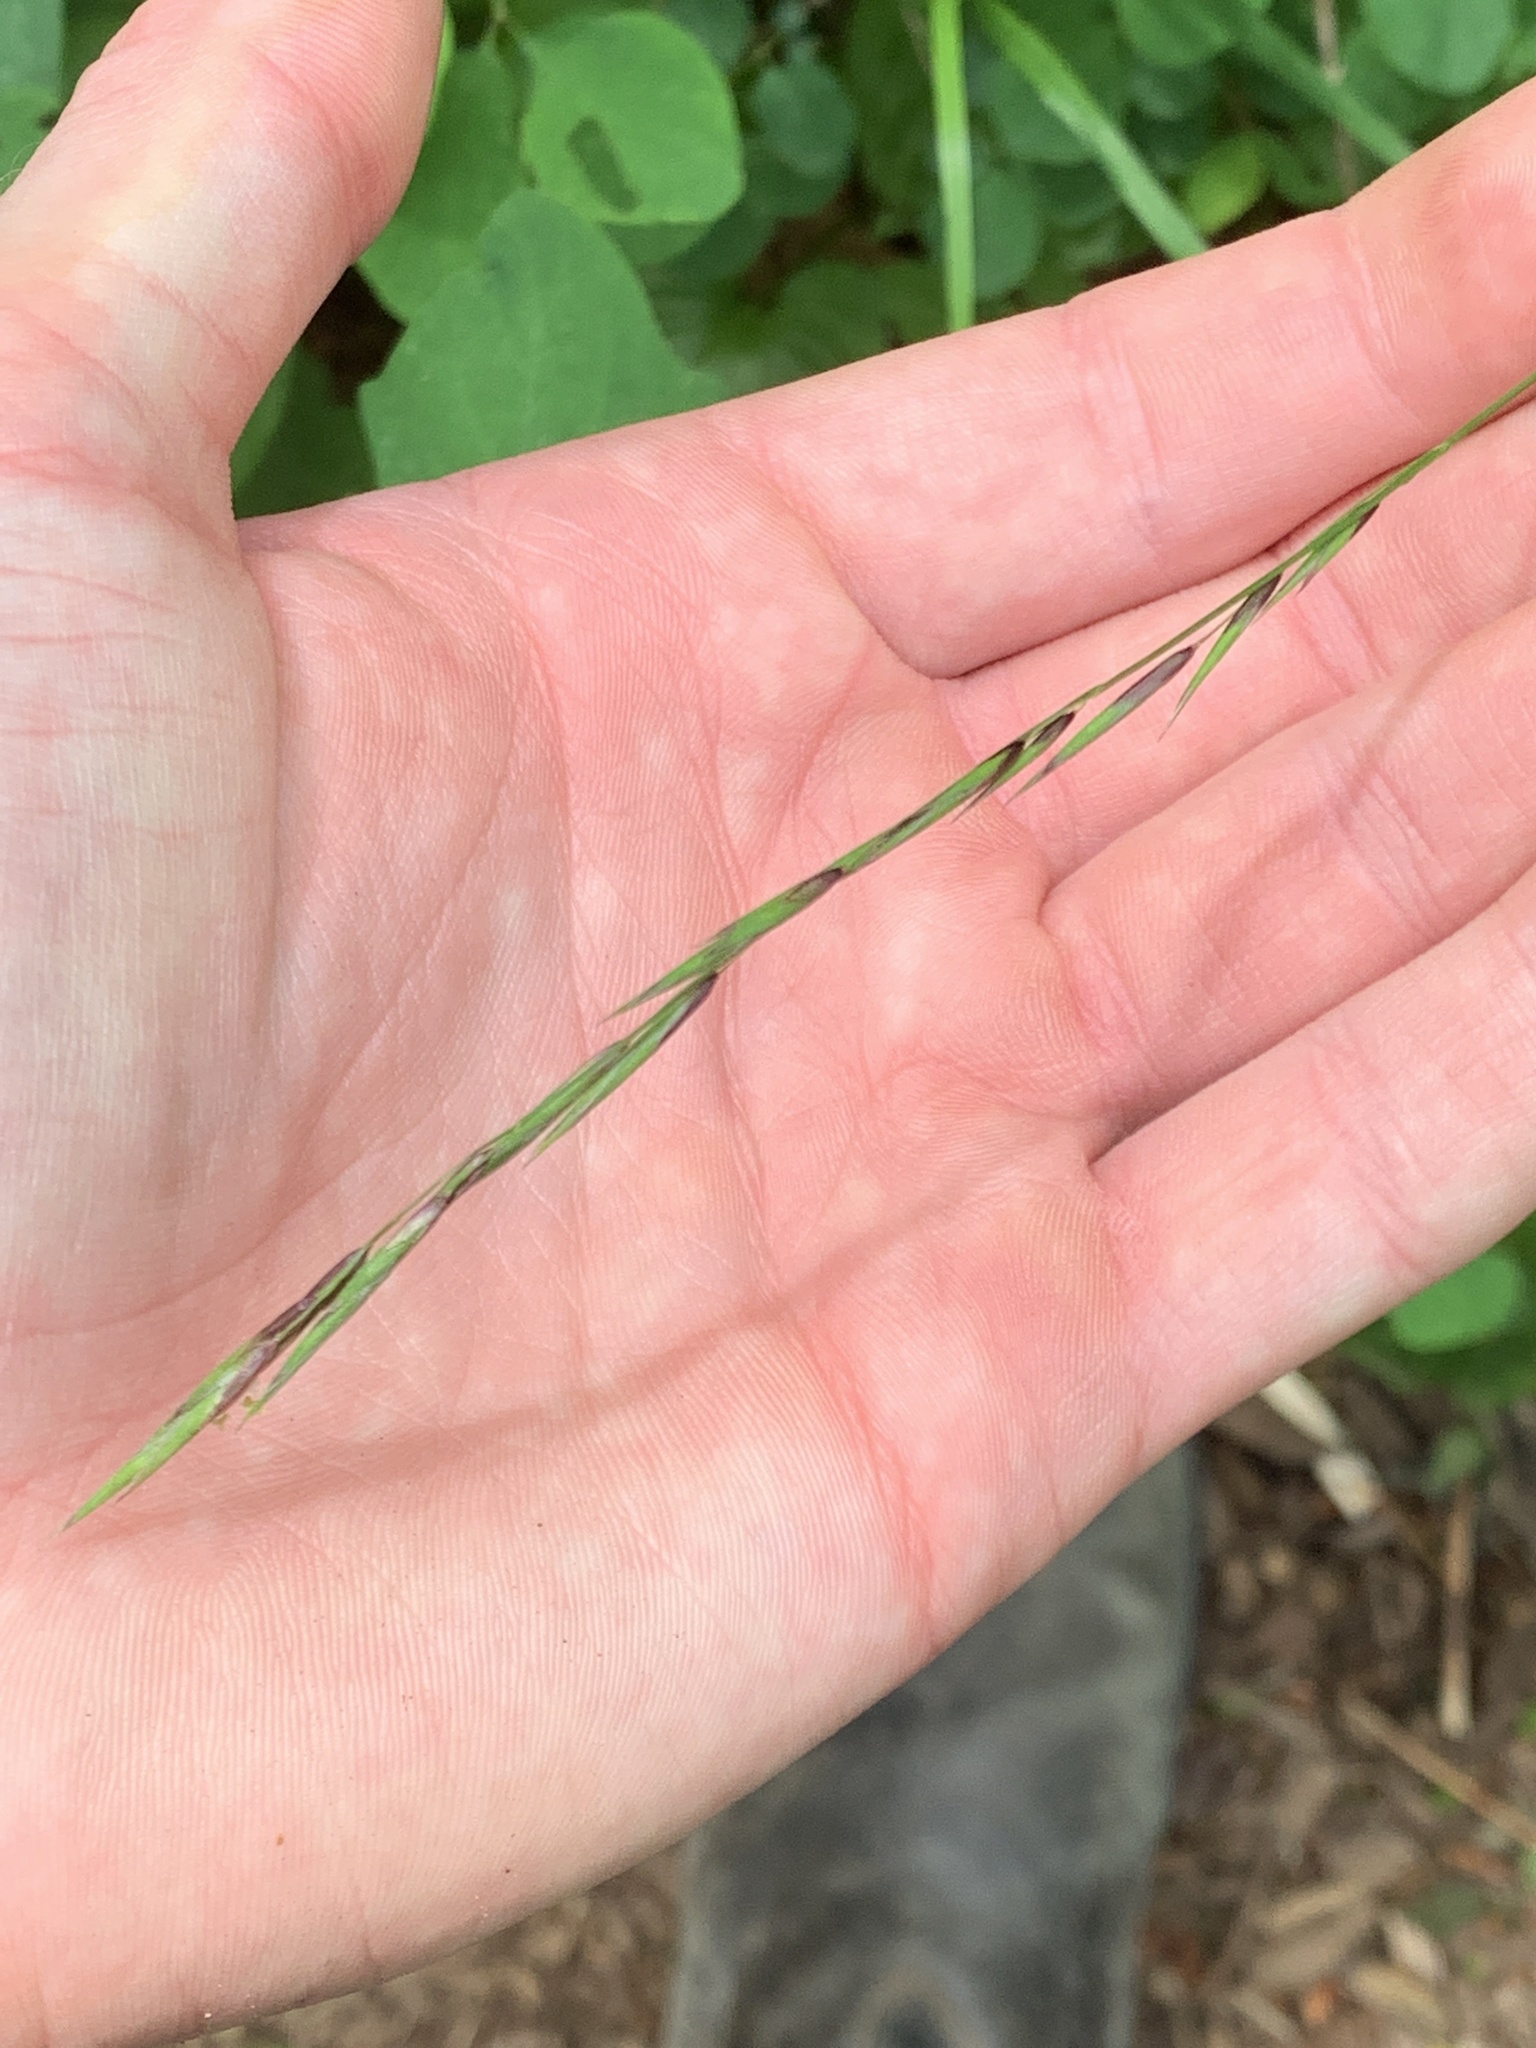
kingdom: Plantae
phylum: Tracheophyta
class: Liliopsida
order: Poales
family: Poaceae
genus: Melica
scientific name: Melica subulata
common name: Tapered oniongrass
